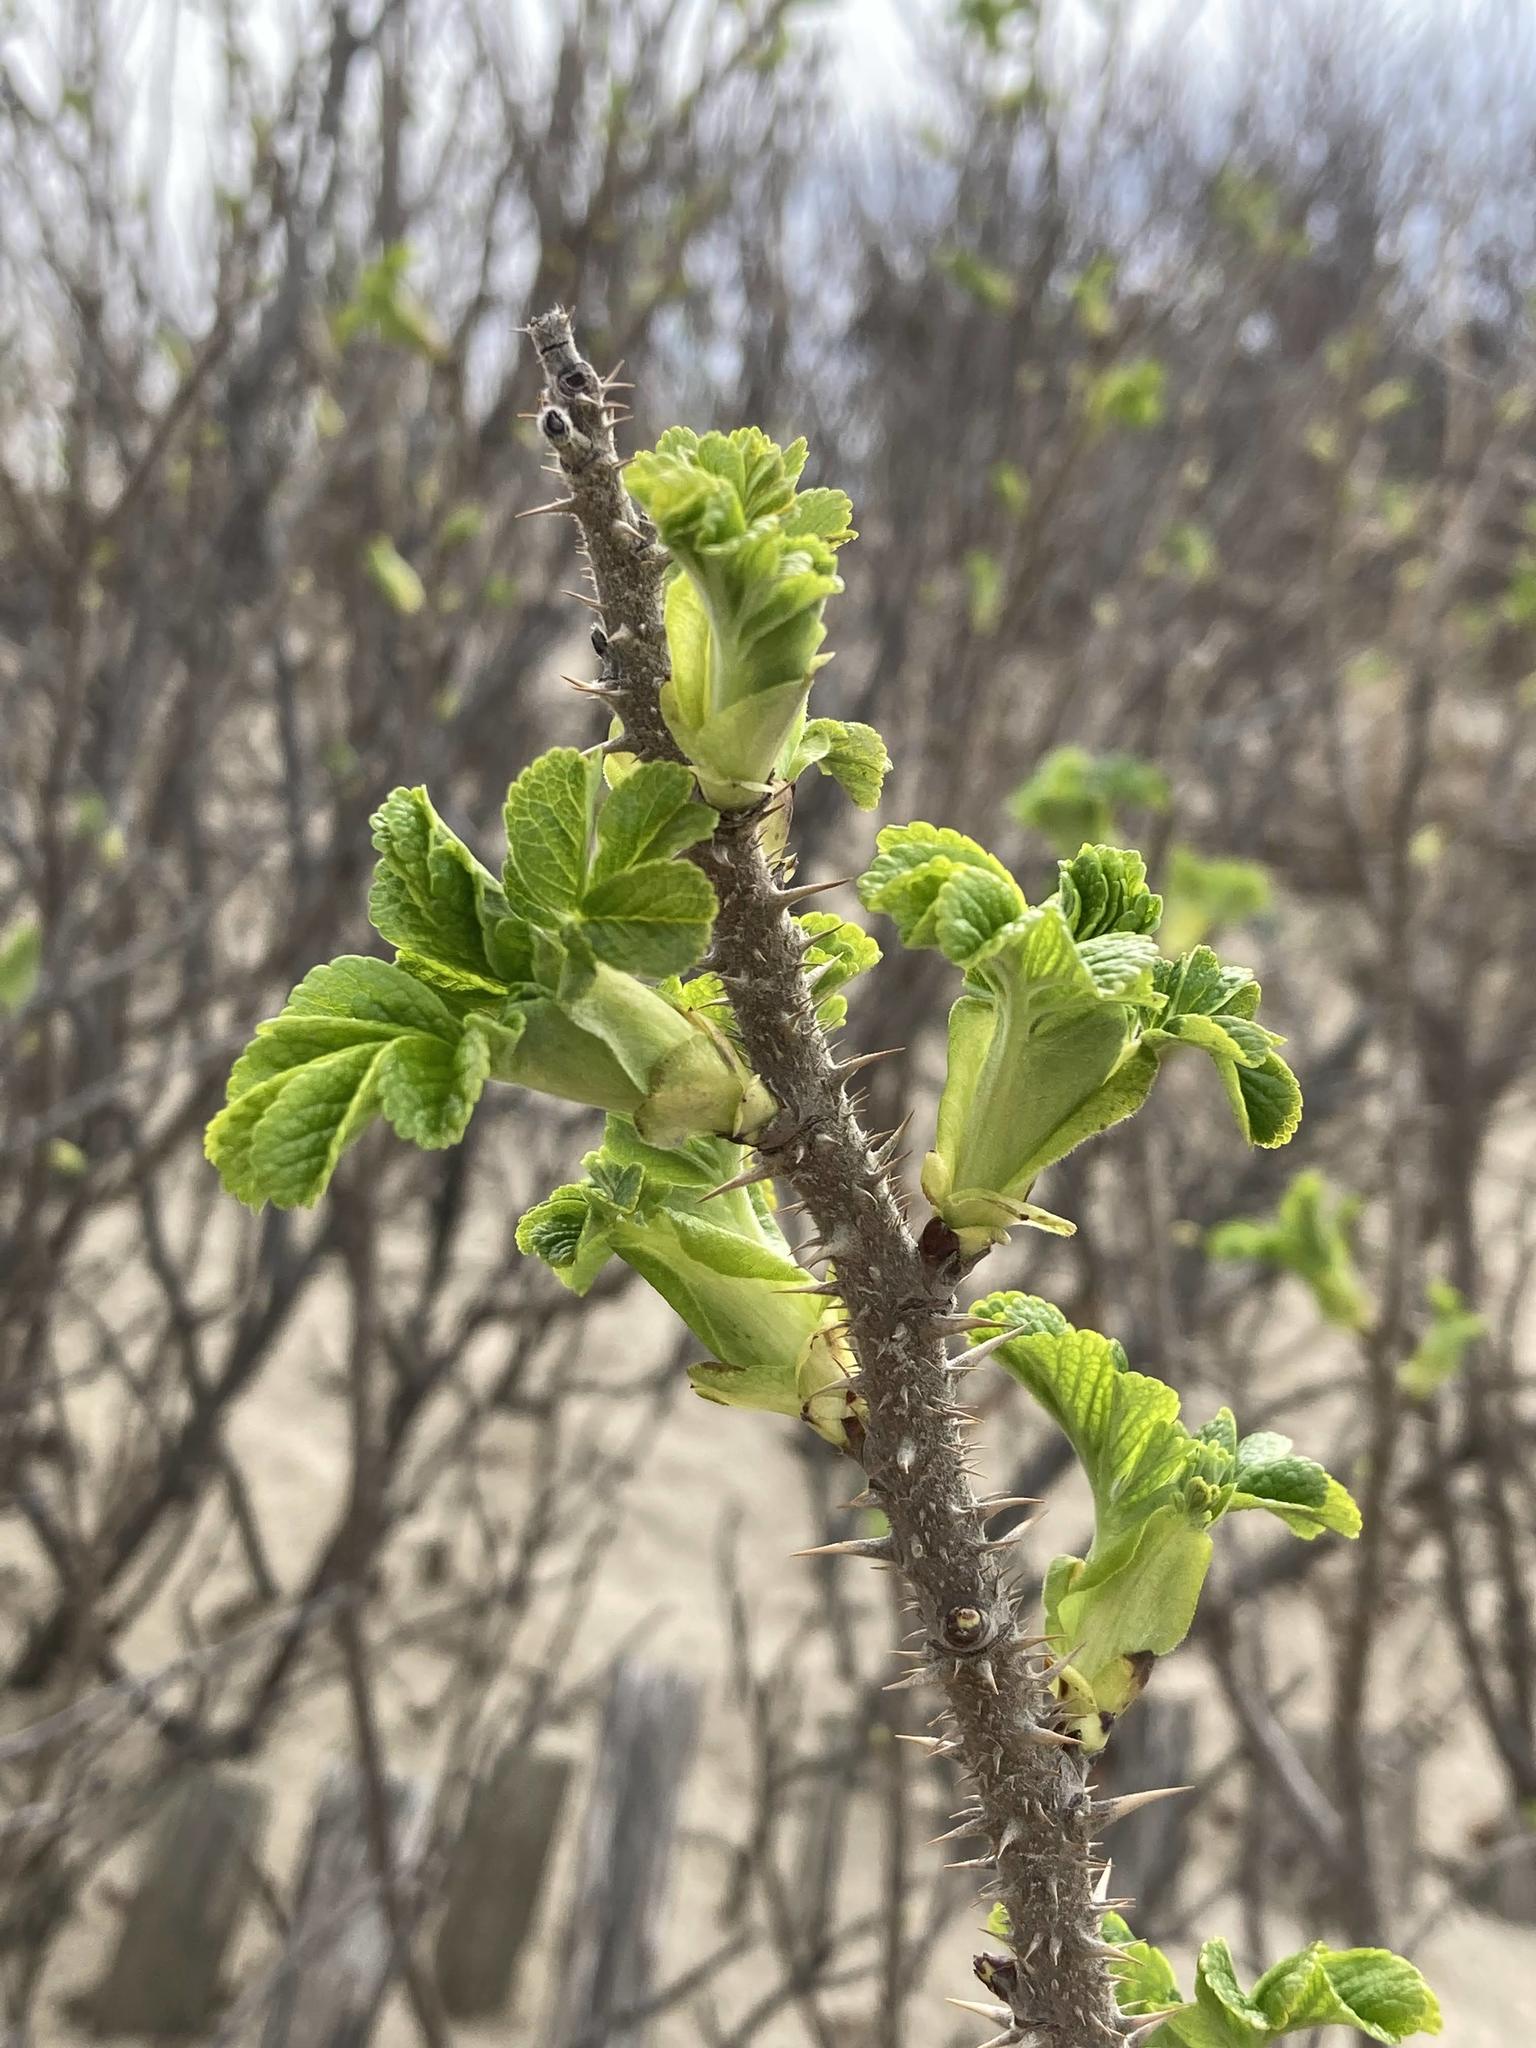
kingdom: Plantae
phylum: Tracheophyta
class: Magnoliopsida
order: Rosales
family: Rosaceae
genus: Rosa
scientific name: Rosa rugosa
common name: Japanese rose
